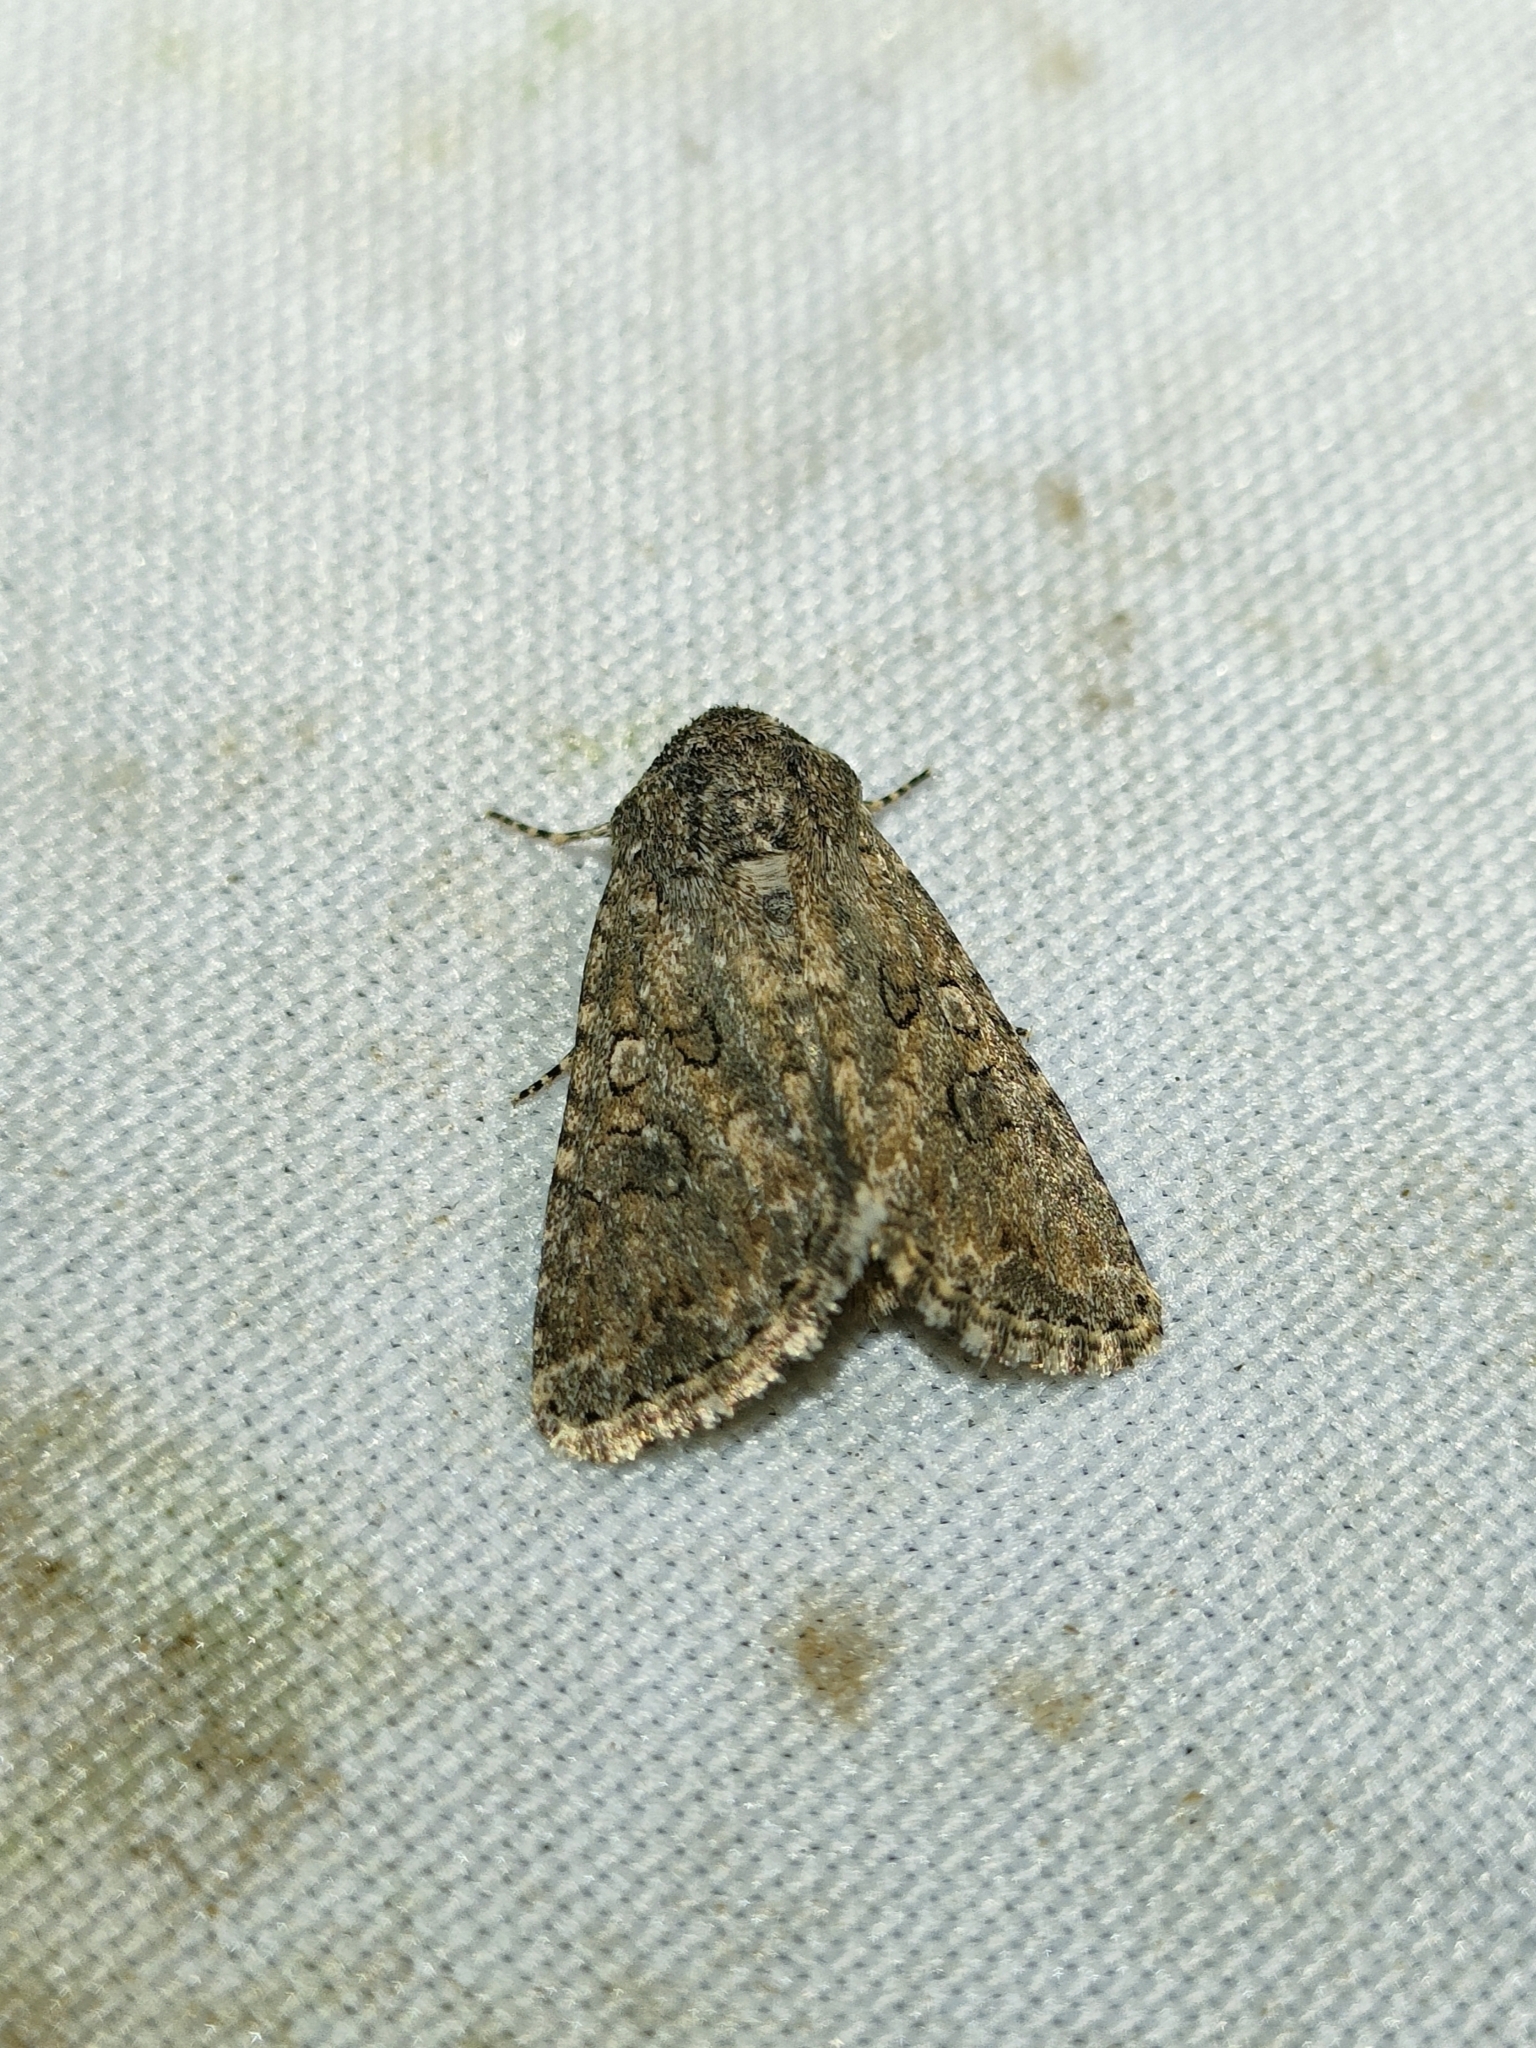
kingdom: Animalia
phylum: Arthropoda
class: Insecta
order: Lepidoptera
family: Noctuidae
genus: Anarta
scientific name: Anarta pugnax
